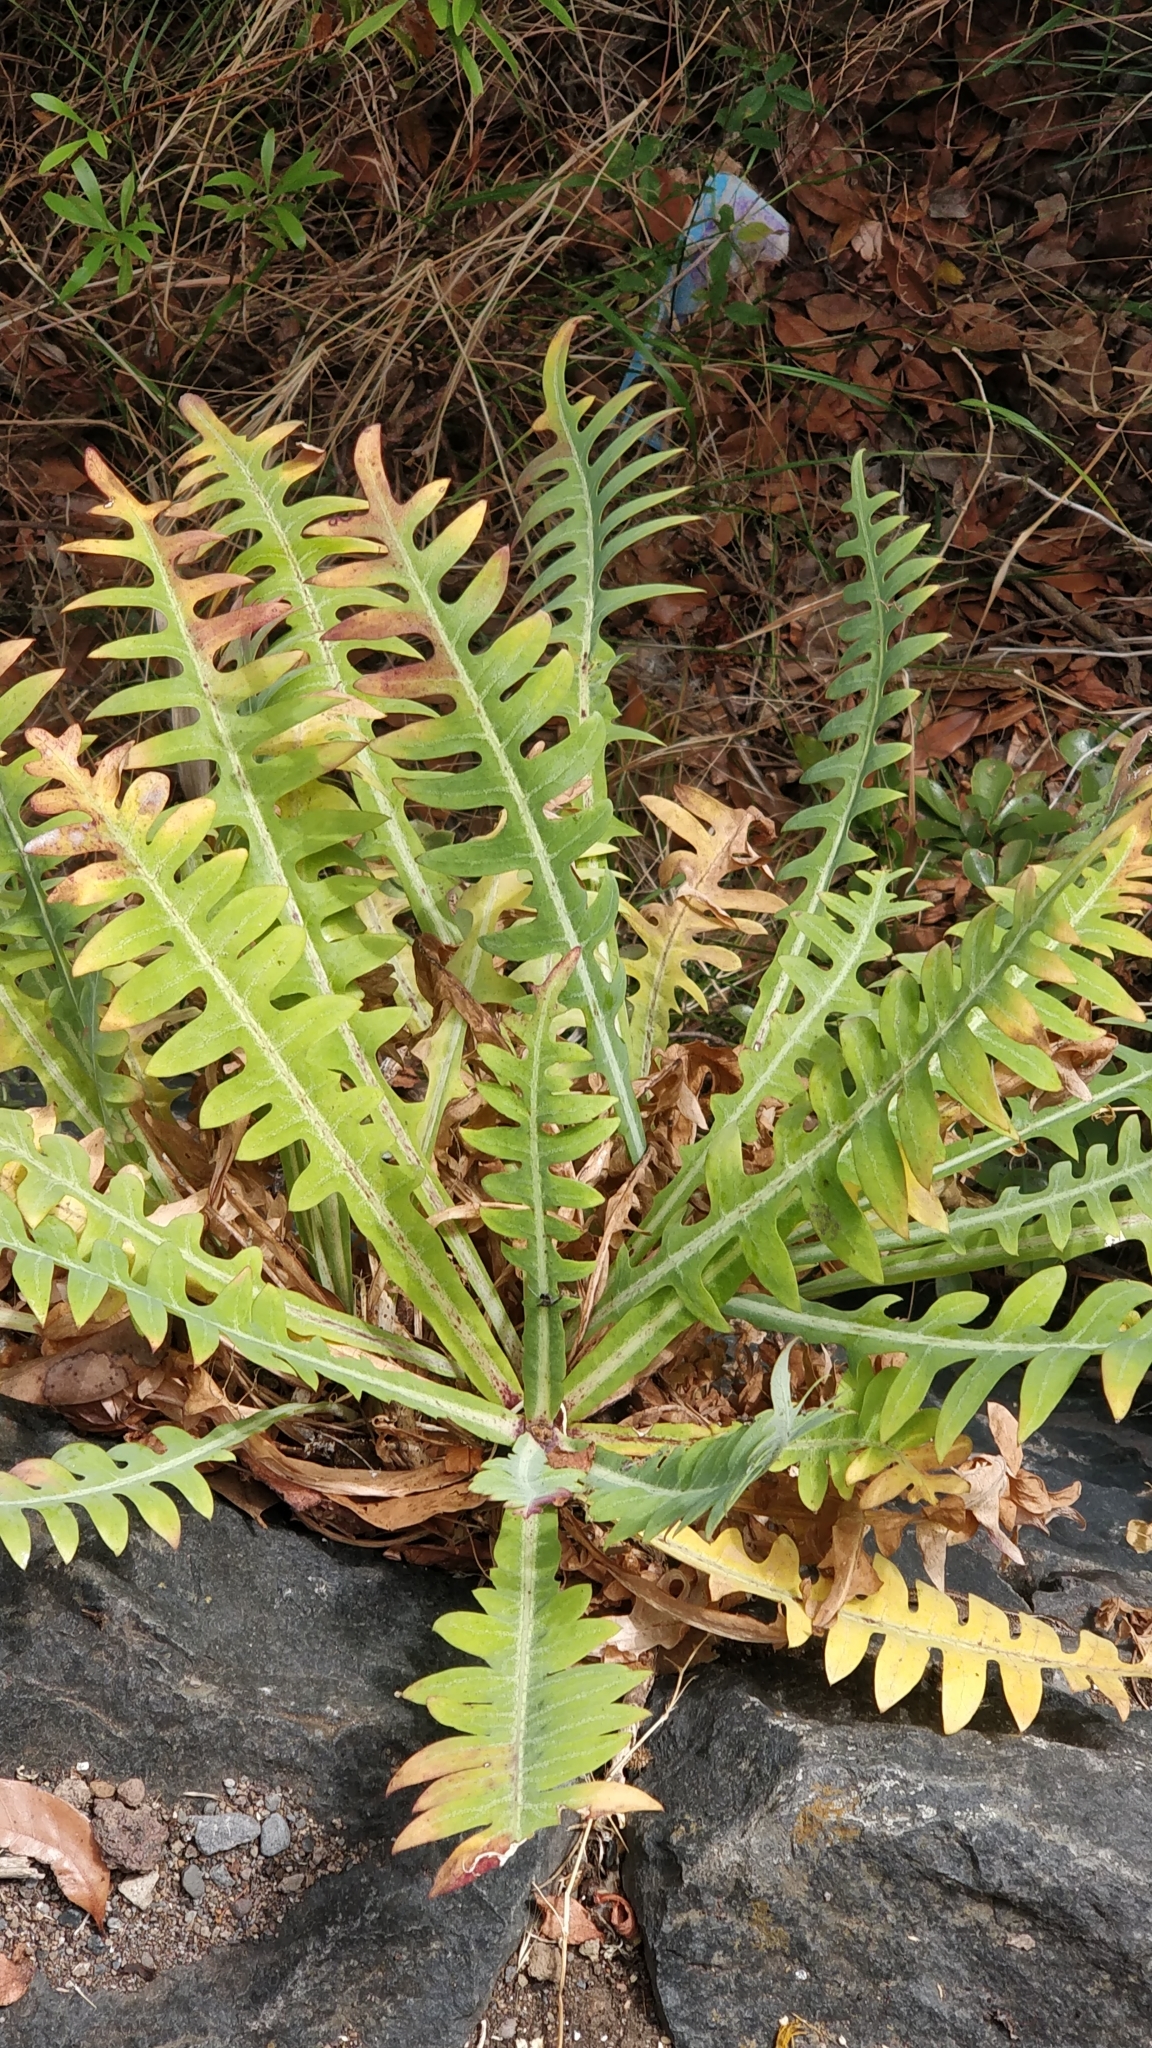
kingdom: Plantae
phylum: Tracheophyta
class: Magnoliopsida
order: Asterales
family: Asteraceae
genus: Sonchus
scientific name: Sonchus ustulatus
